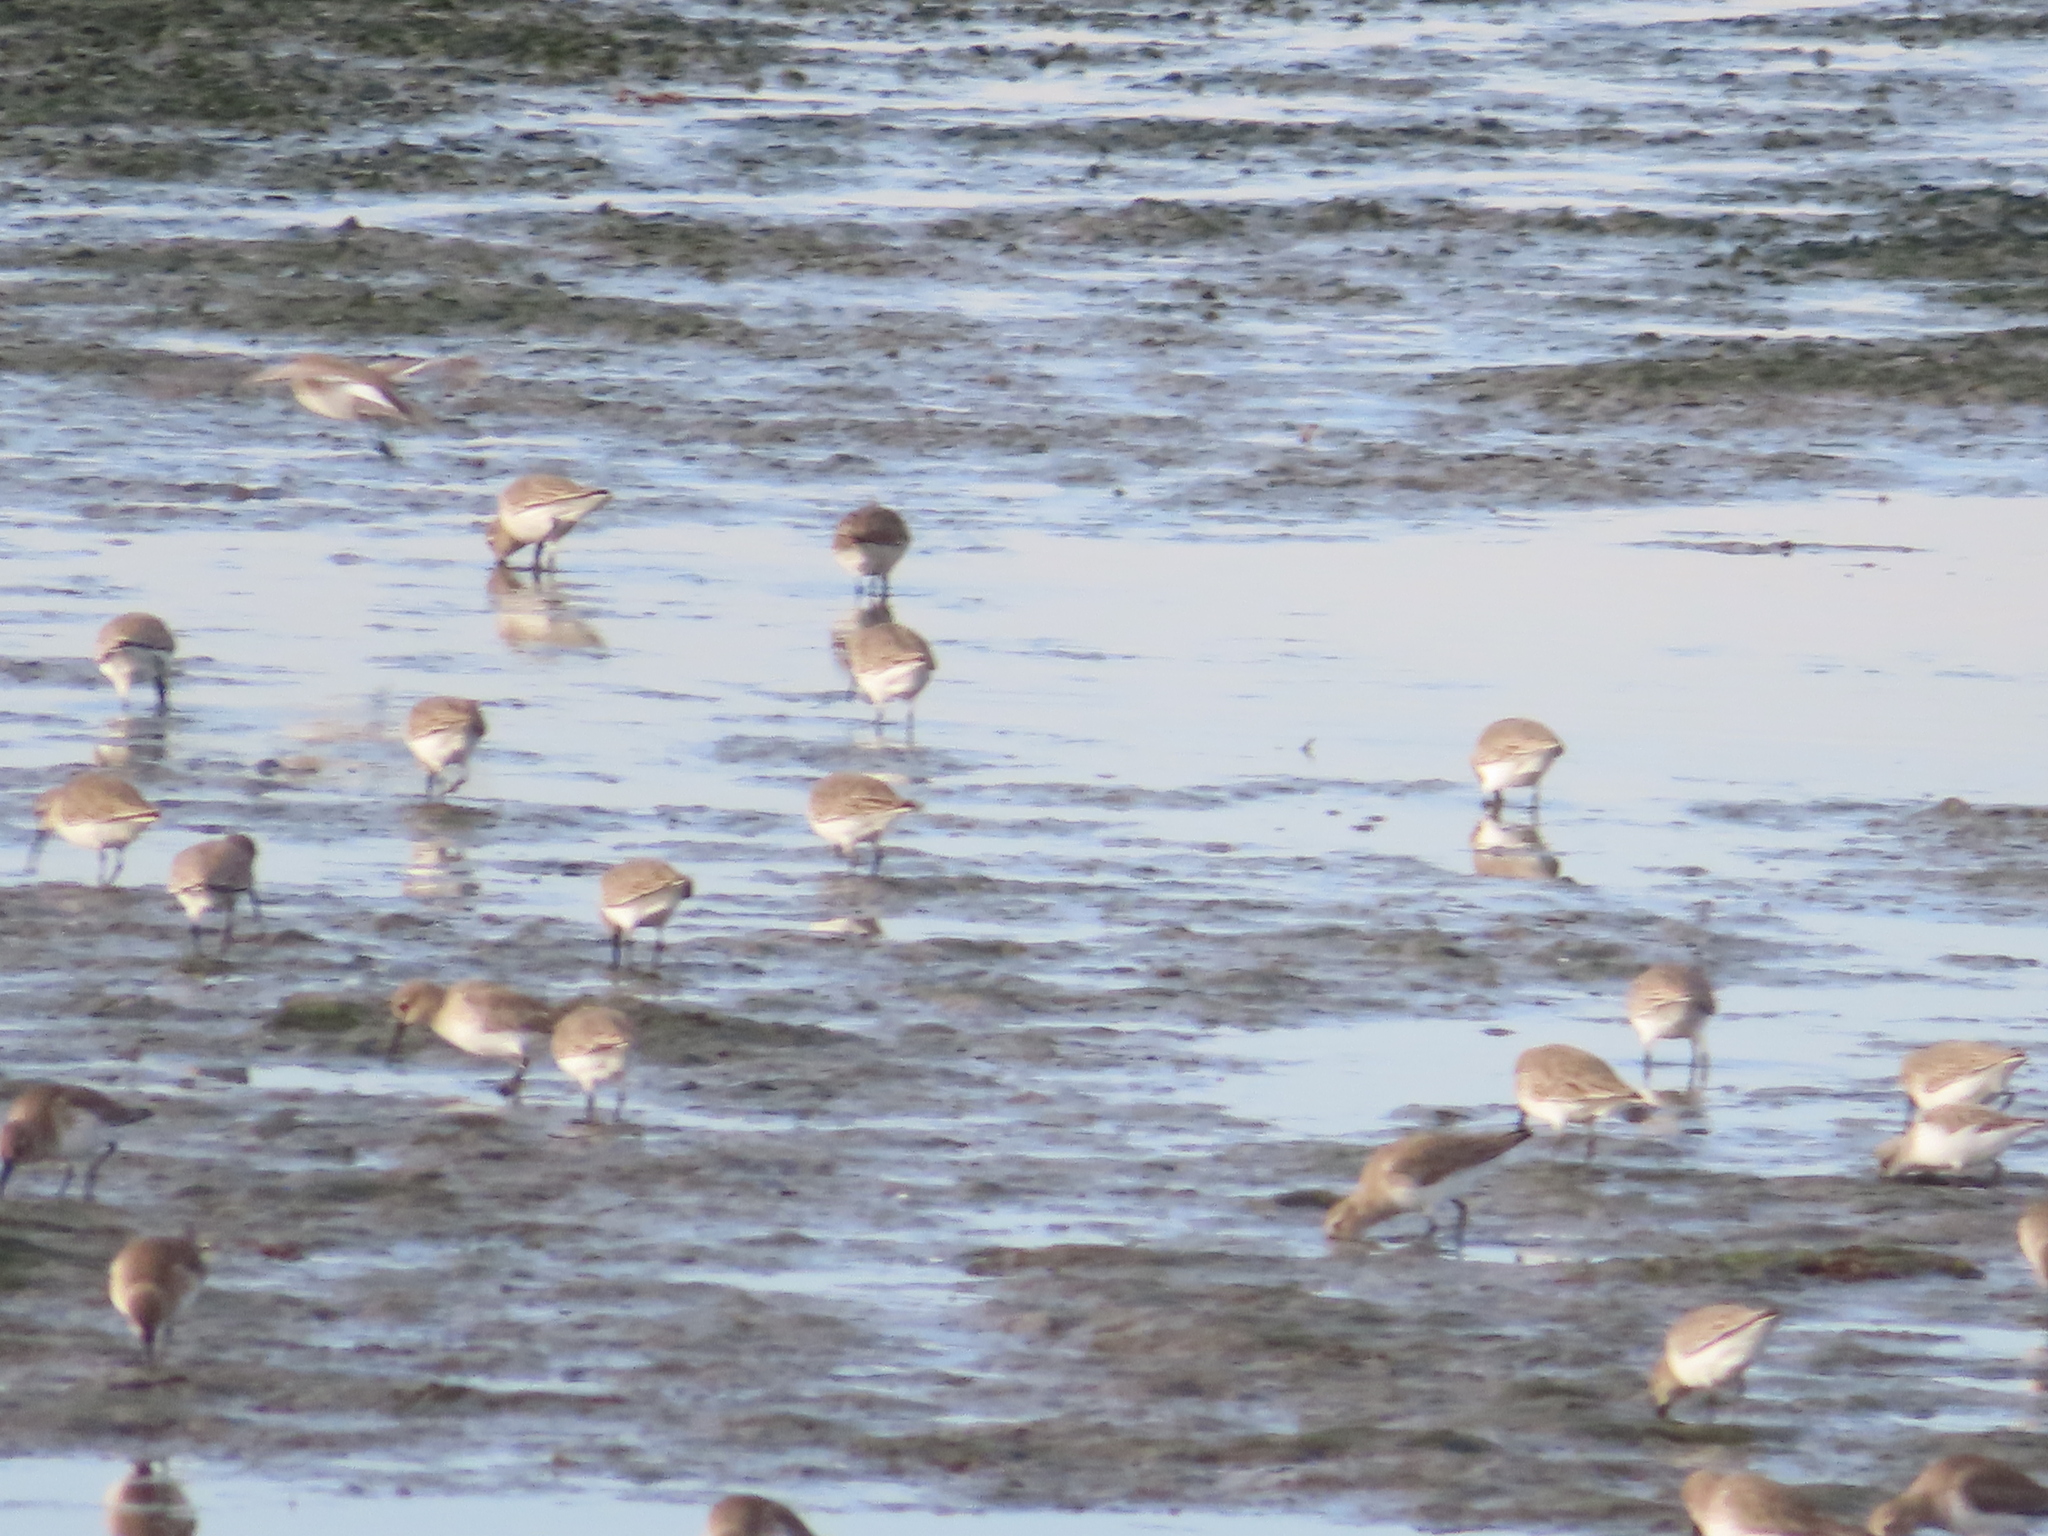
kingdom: Animalia
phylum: Chordata
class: Aves
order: Charadriiformes
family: Scolopacidae
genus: Calidris
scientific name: Calidris alpina
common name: Dunlin
